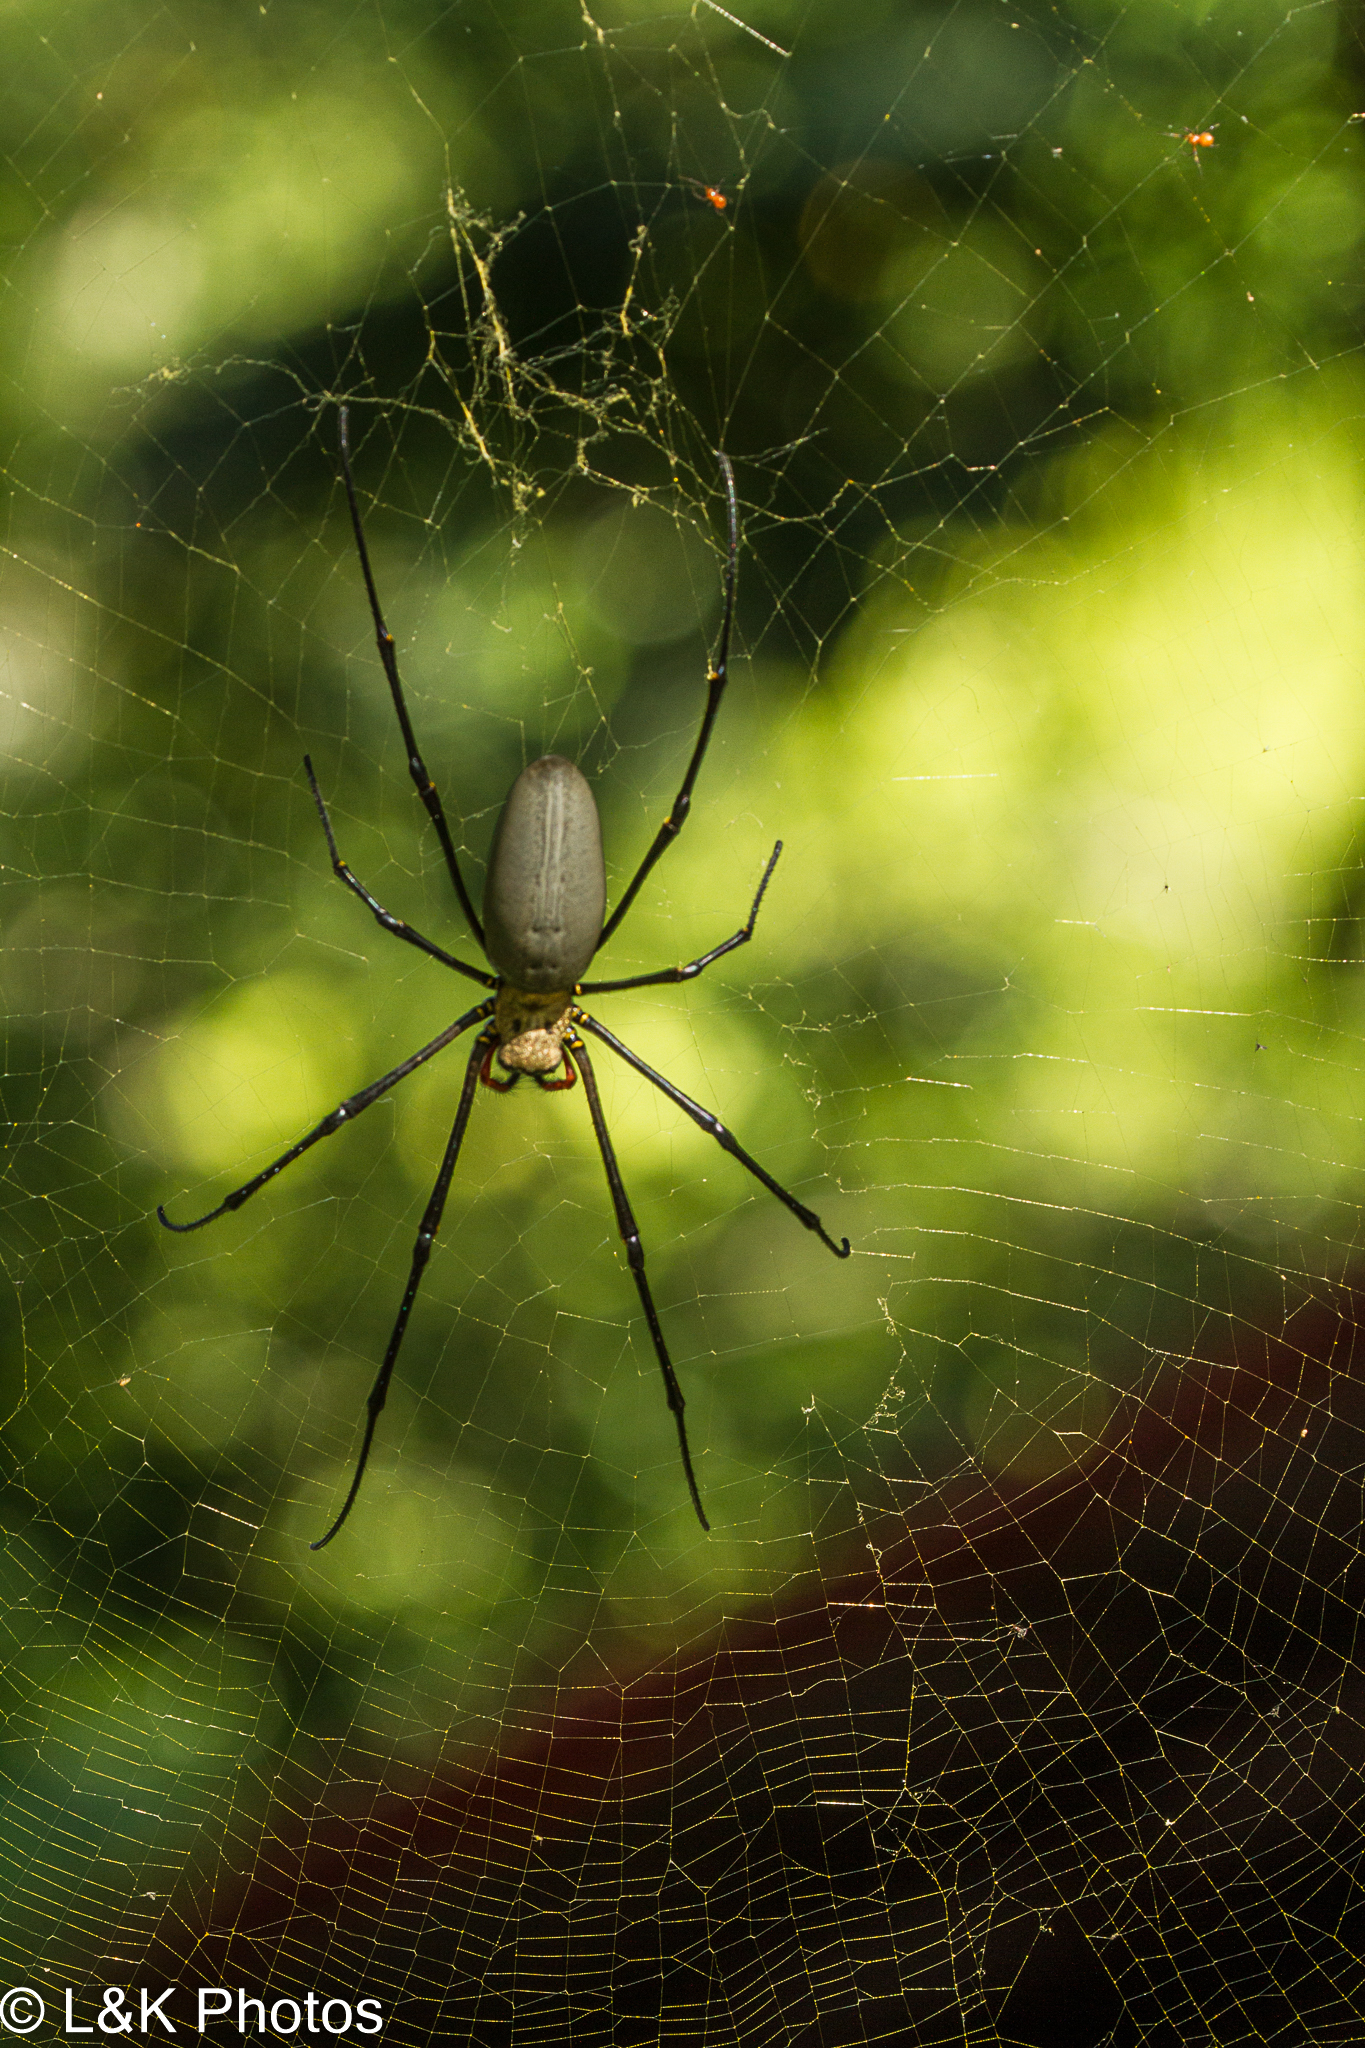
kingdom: Animalia
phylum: Arthropoda
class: Arachnida
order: Araneae
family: Araneidae
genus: Nephila
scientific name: Nephila pilipes
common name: Giant golden orb weaver
